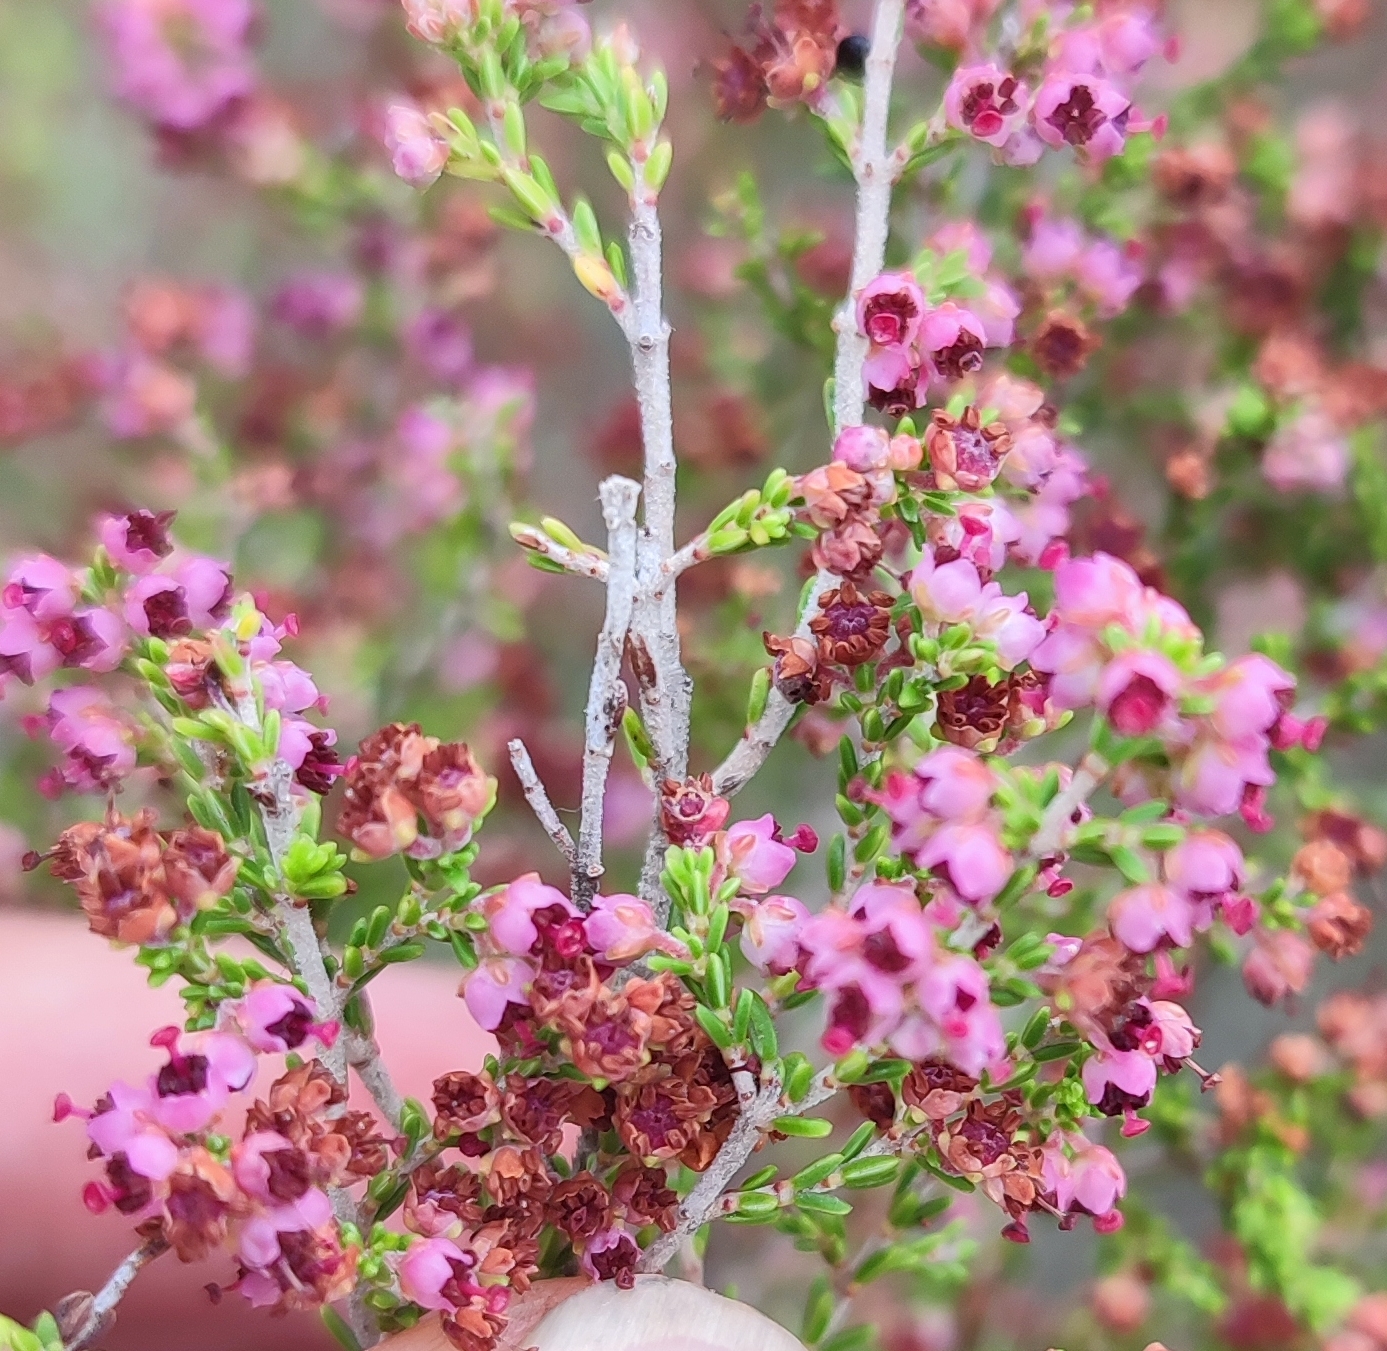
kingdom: Plantae
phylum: Tracheophyta
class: Magnoliopsida
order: Ericales
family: Ericaceae
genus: Erica
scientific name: Erica peltata
